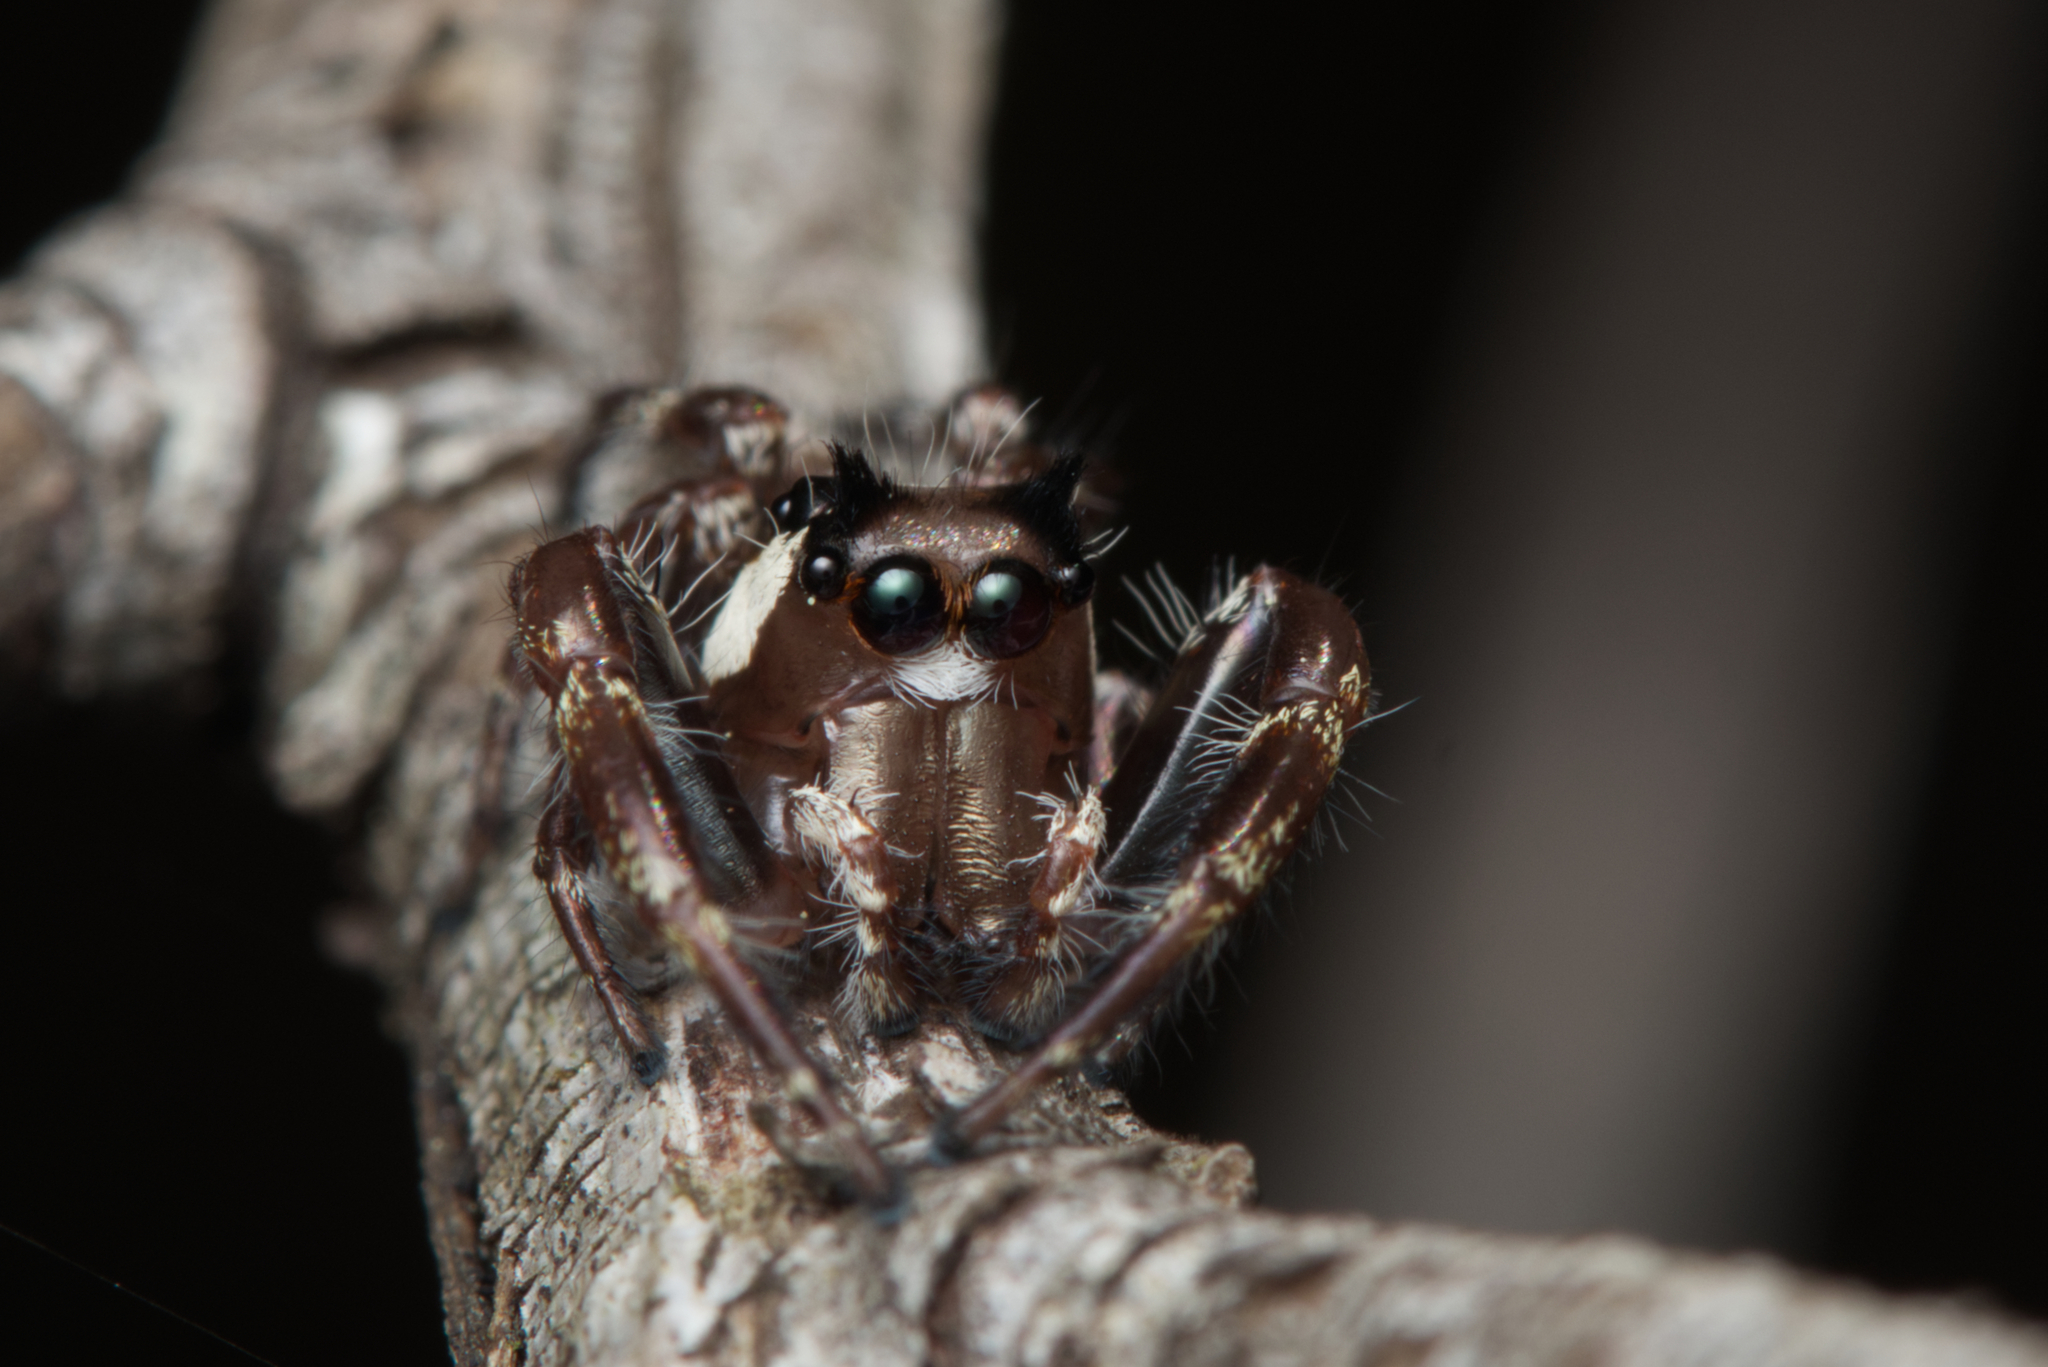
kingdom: Animalia
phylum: Arthropoda
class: Arachnida
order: Araneae
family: Salticidae
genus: Sandalodes
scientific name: Sandalodes bipenicillatus
